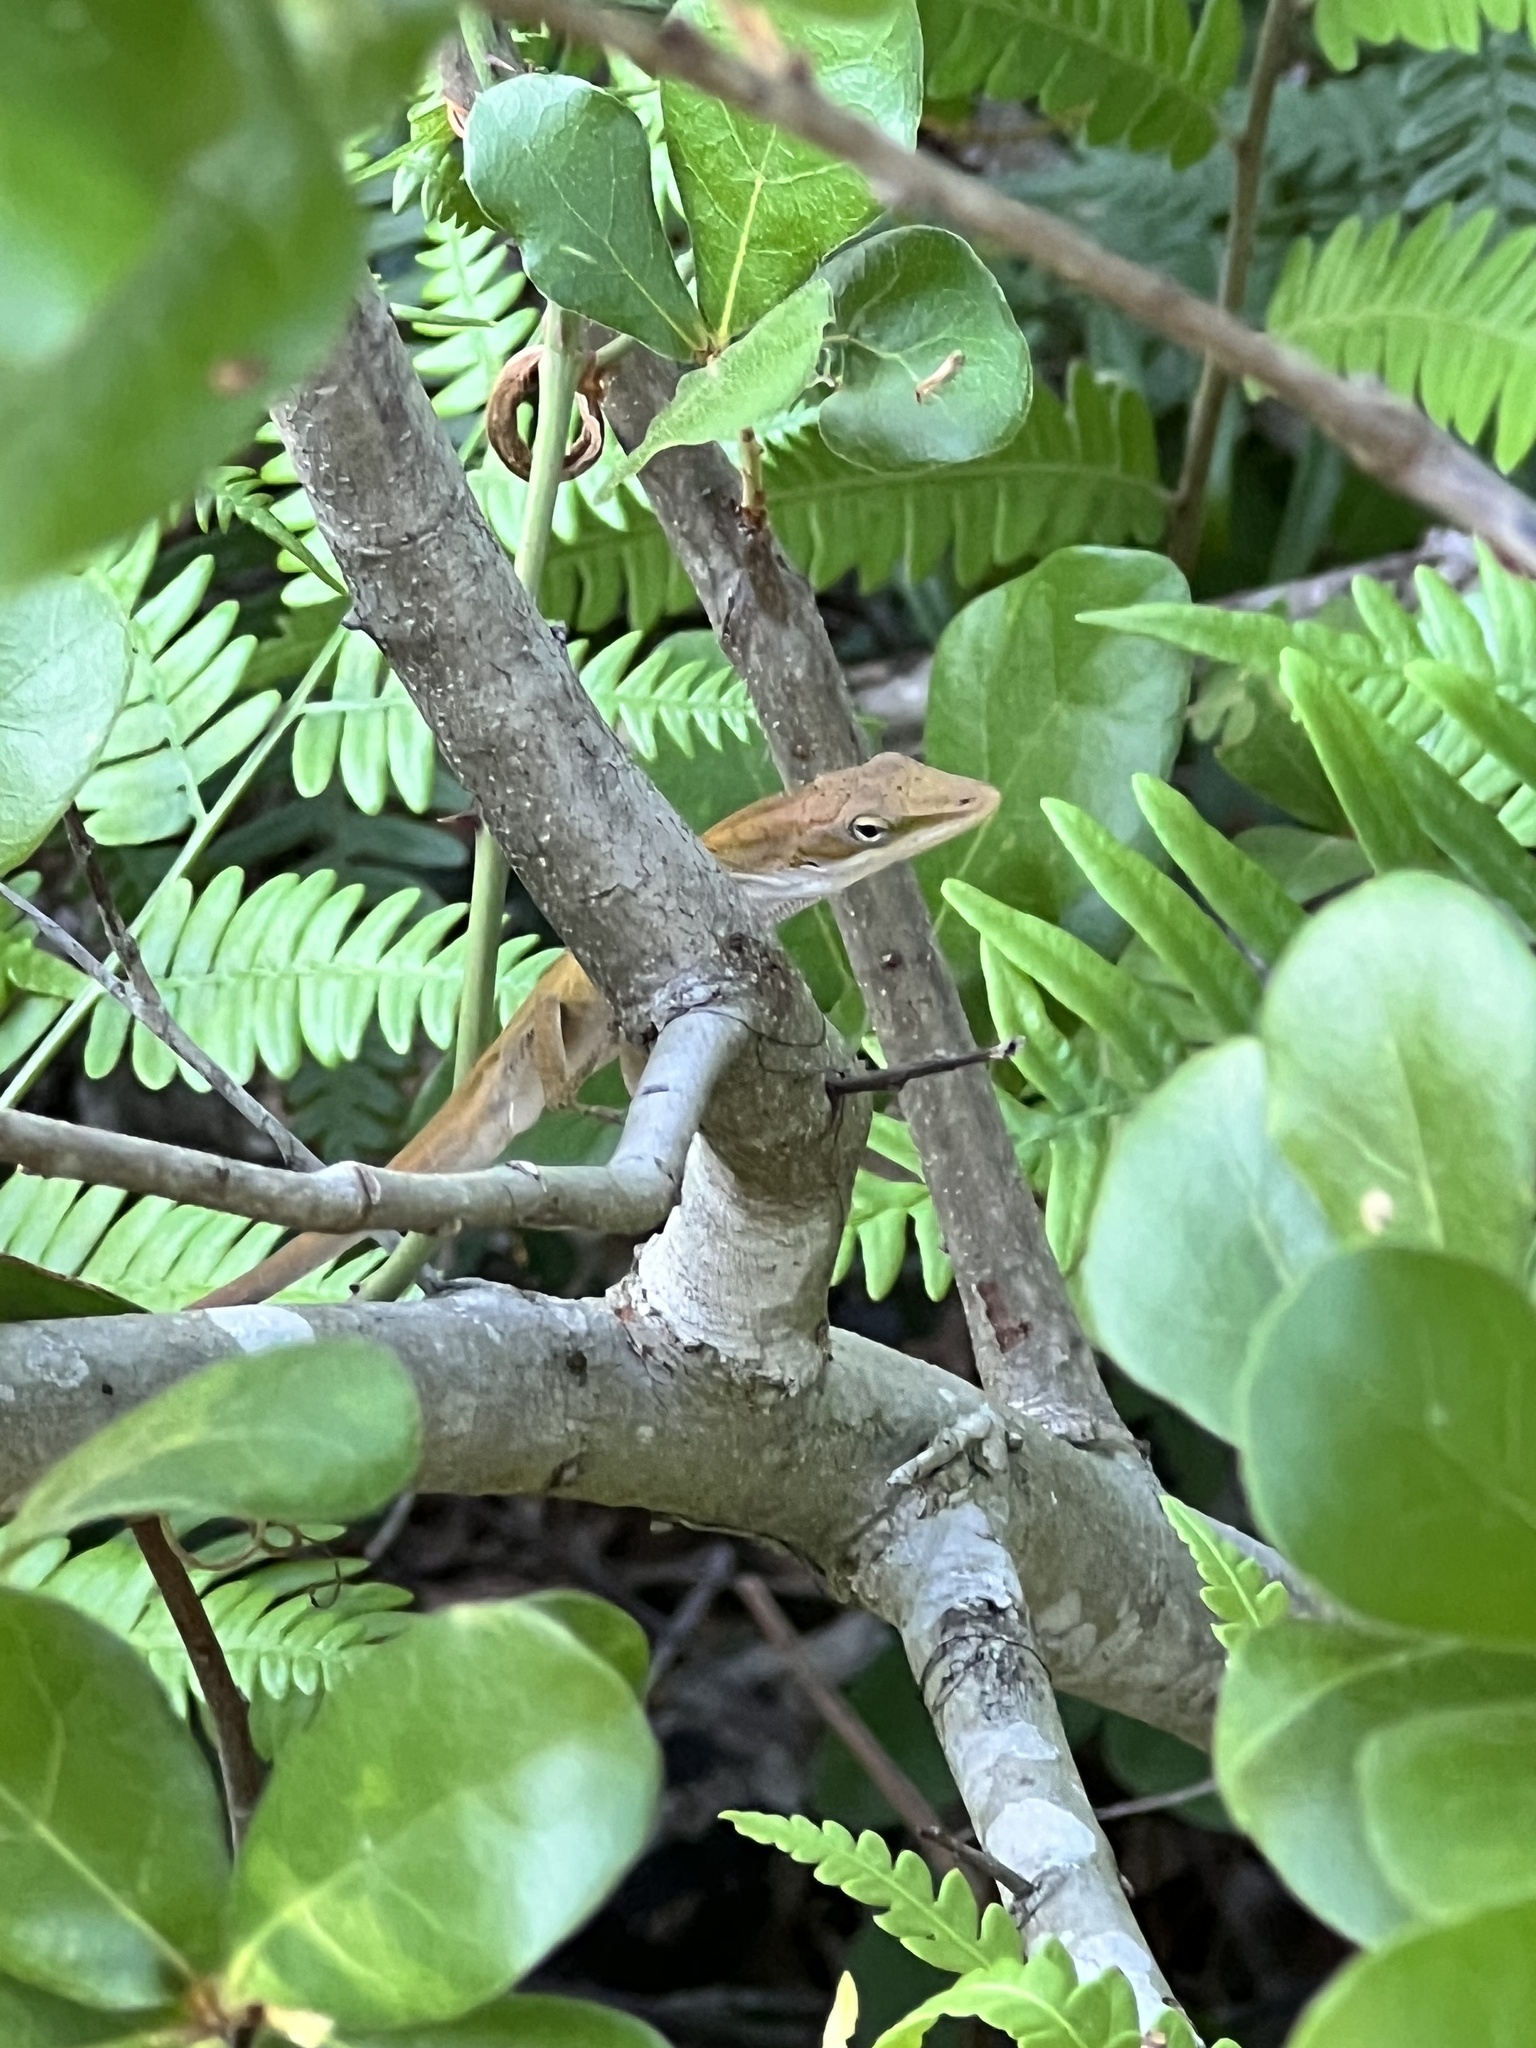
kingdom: Animalia
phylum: Chordata
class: Squamata
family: Dactyloidae
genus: Anolis
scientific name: Anolis carolinensis
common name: Green anole
